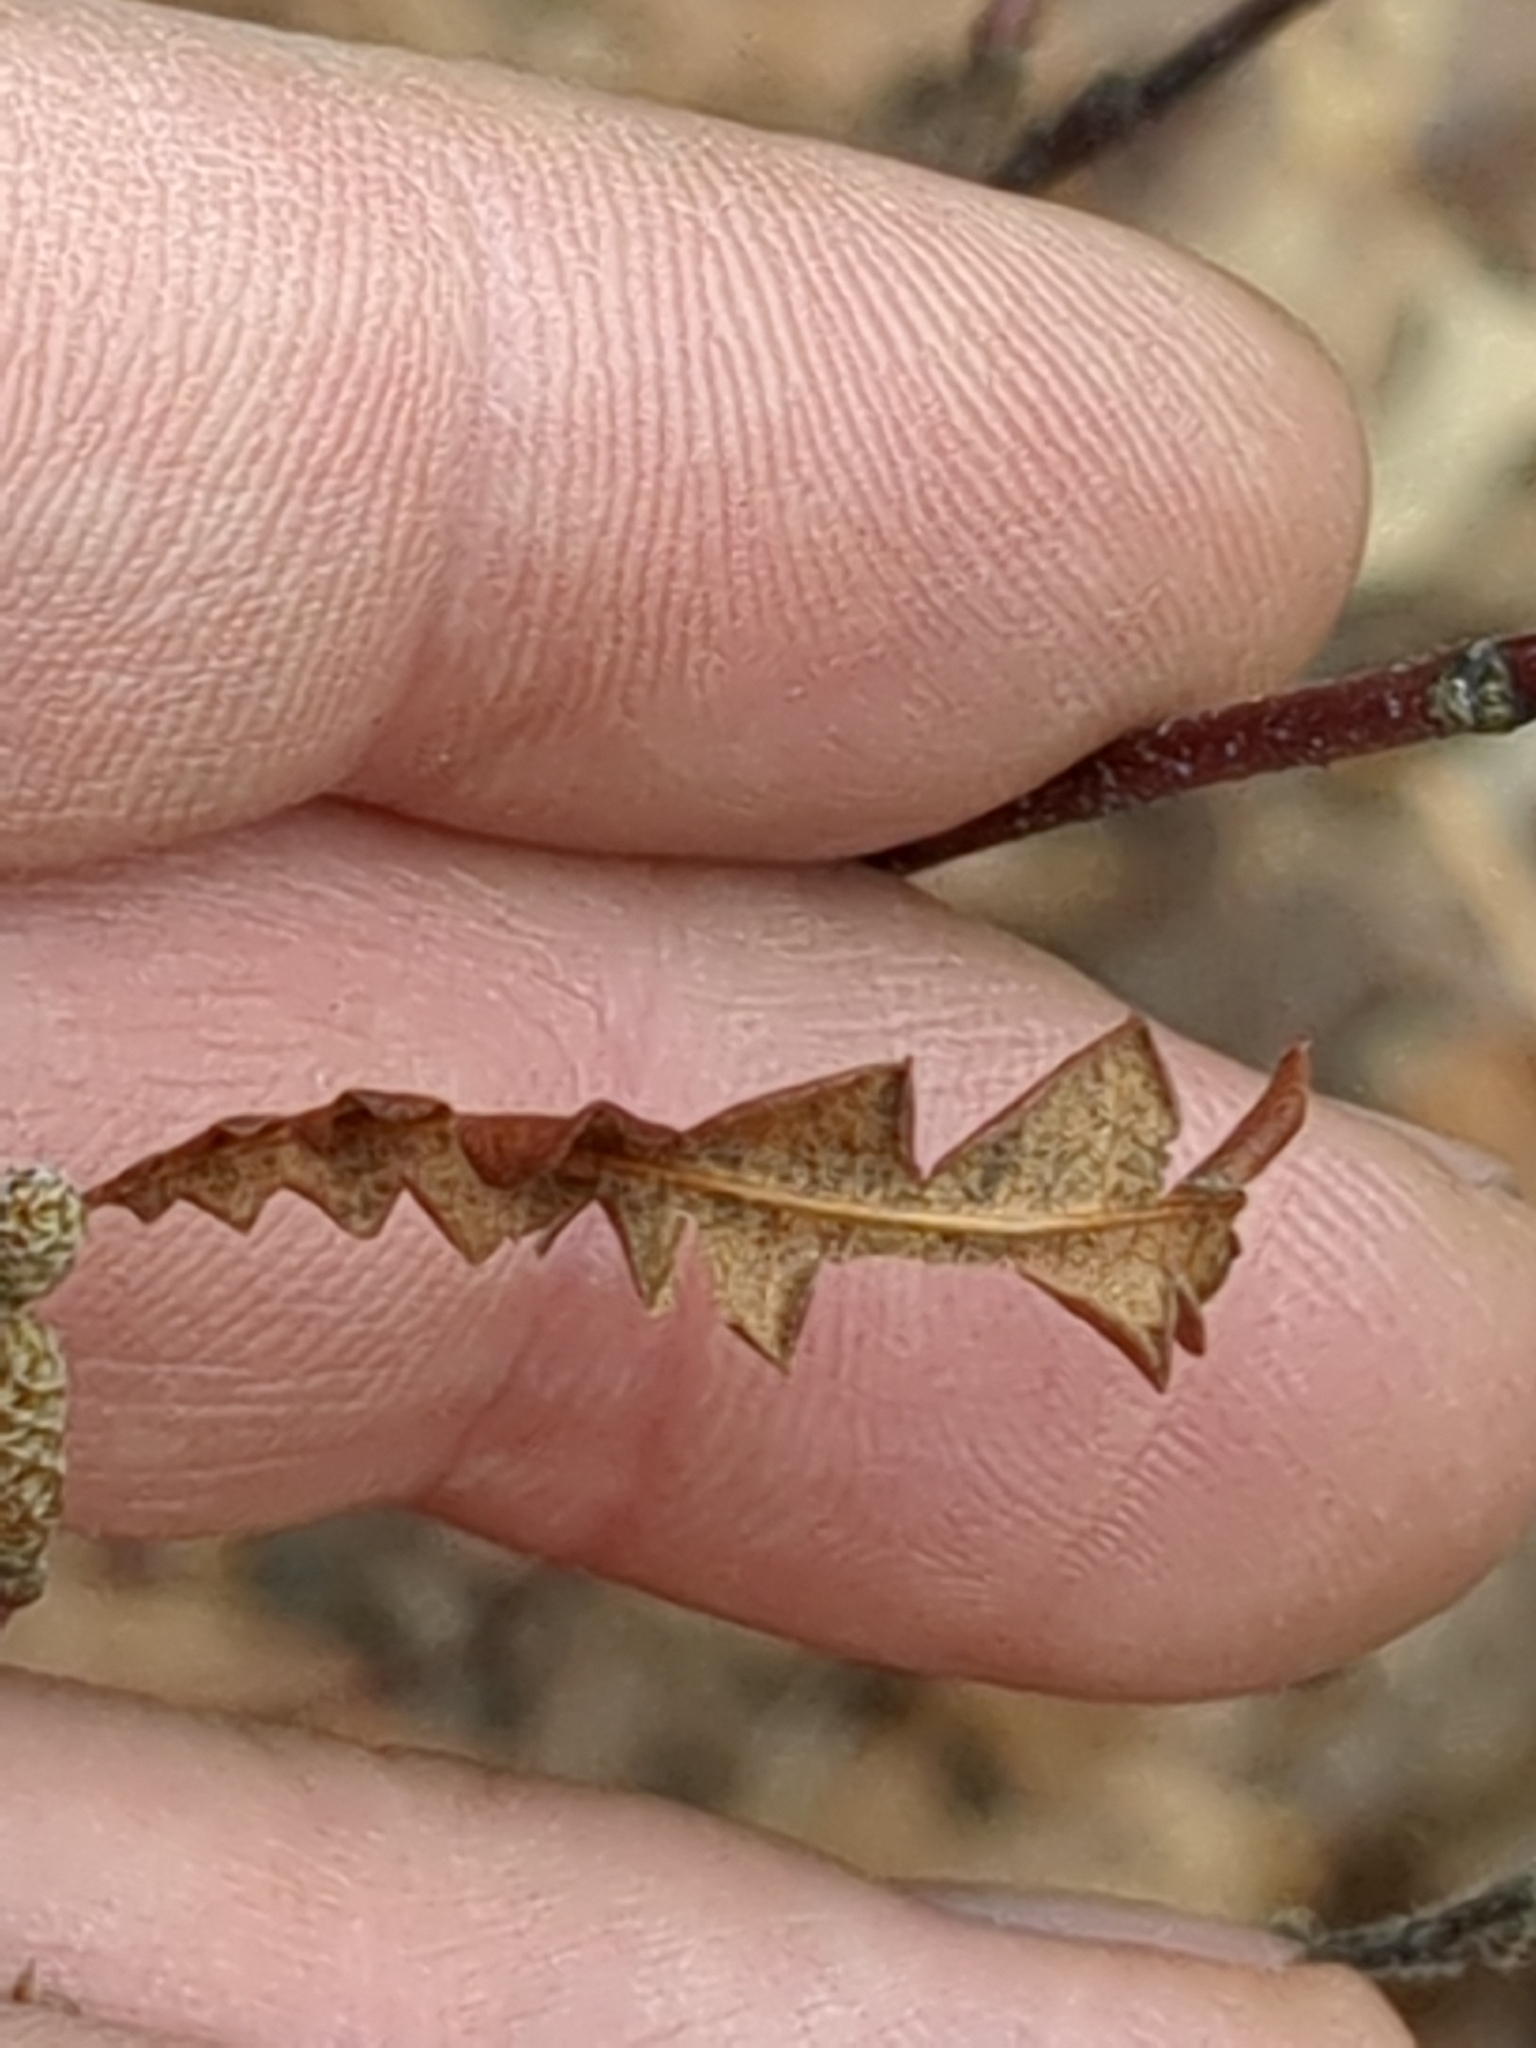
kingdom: Plantae
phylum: Tracheophyta
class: Magnoliopsida
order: Fagales
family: Myricaceae
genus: Comptonia
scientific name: Comptonia peregrina
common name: Sweet-fern
